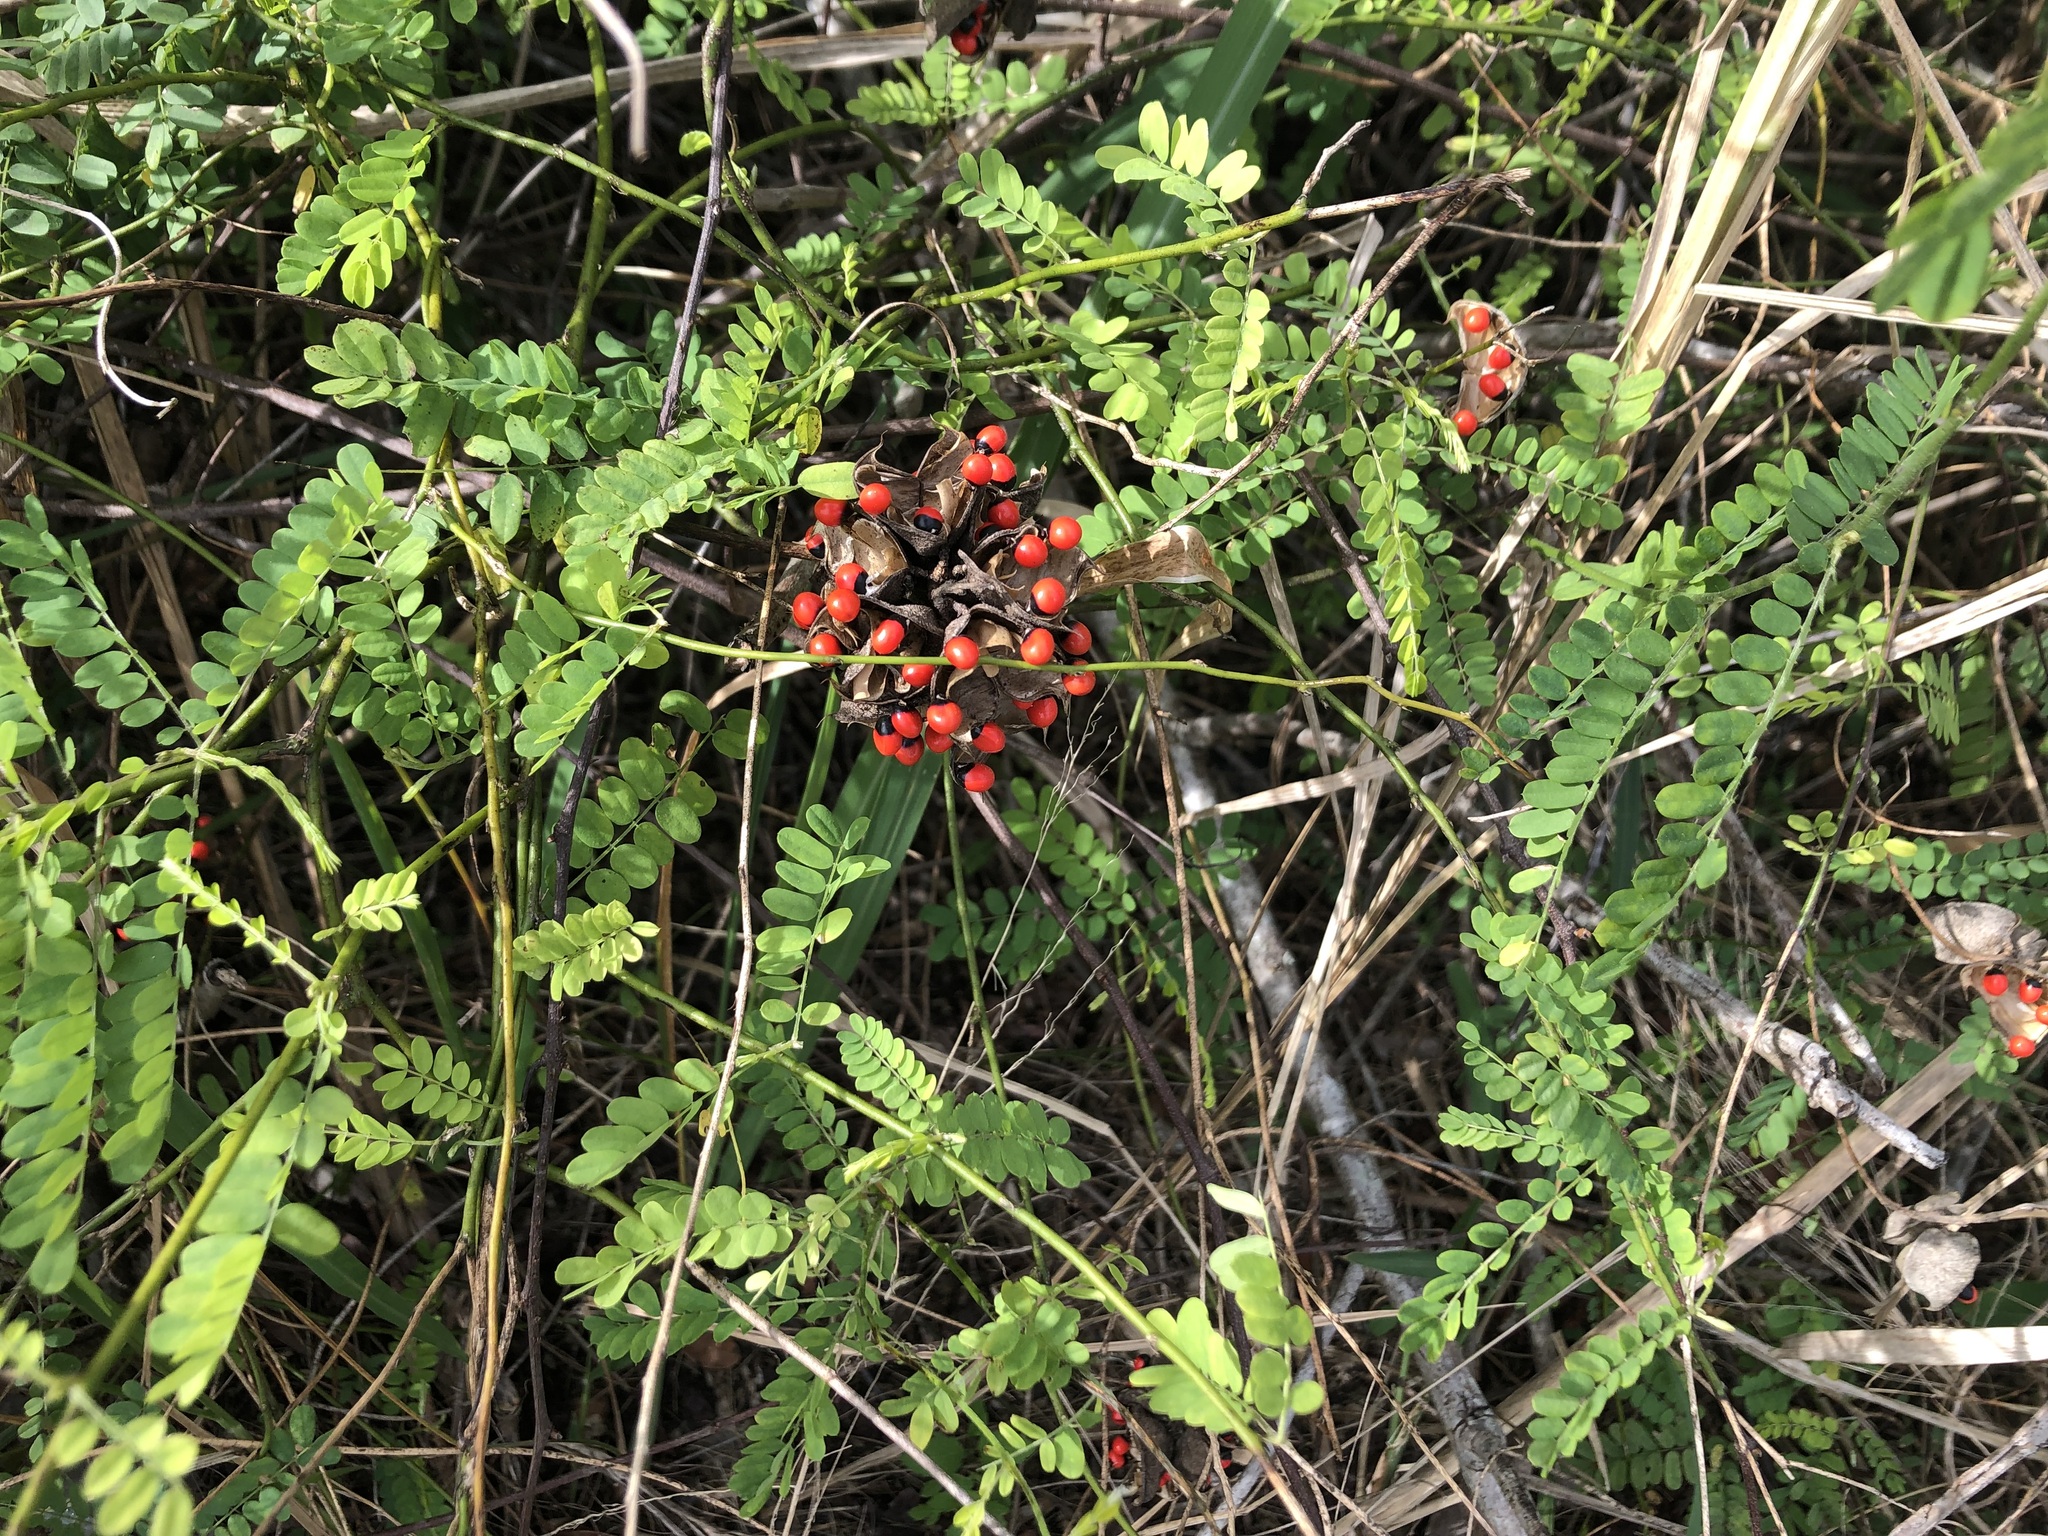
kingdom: Plantae
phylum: Tracheophyta
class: Magnoliopsida
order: Fabales
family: Fabaceae
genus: Abrus
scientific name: Abrus precatorius
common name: Rosarypea
